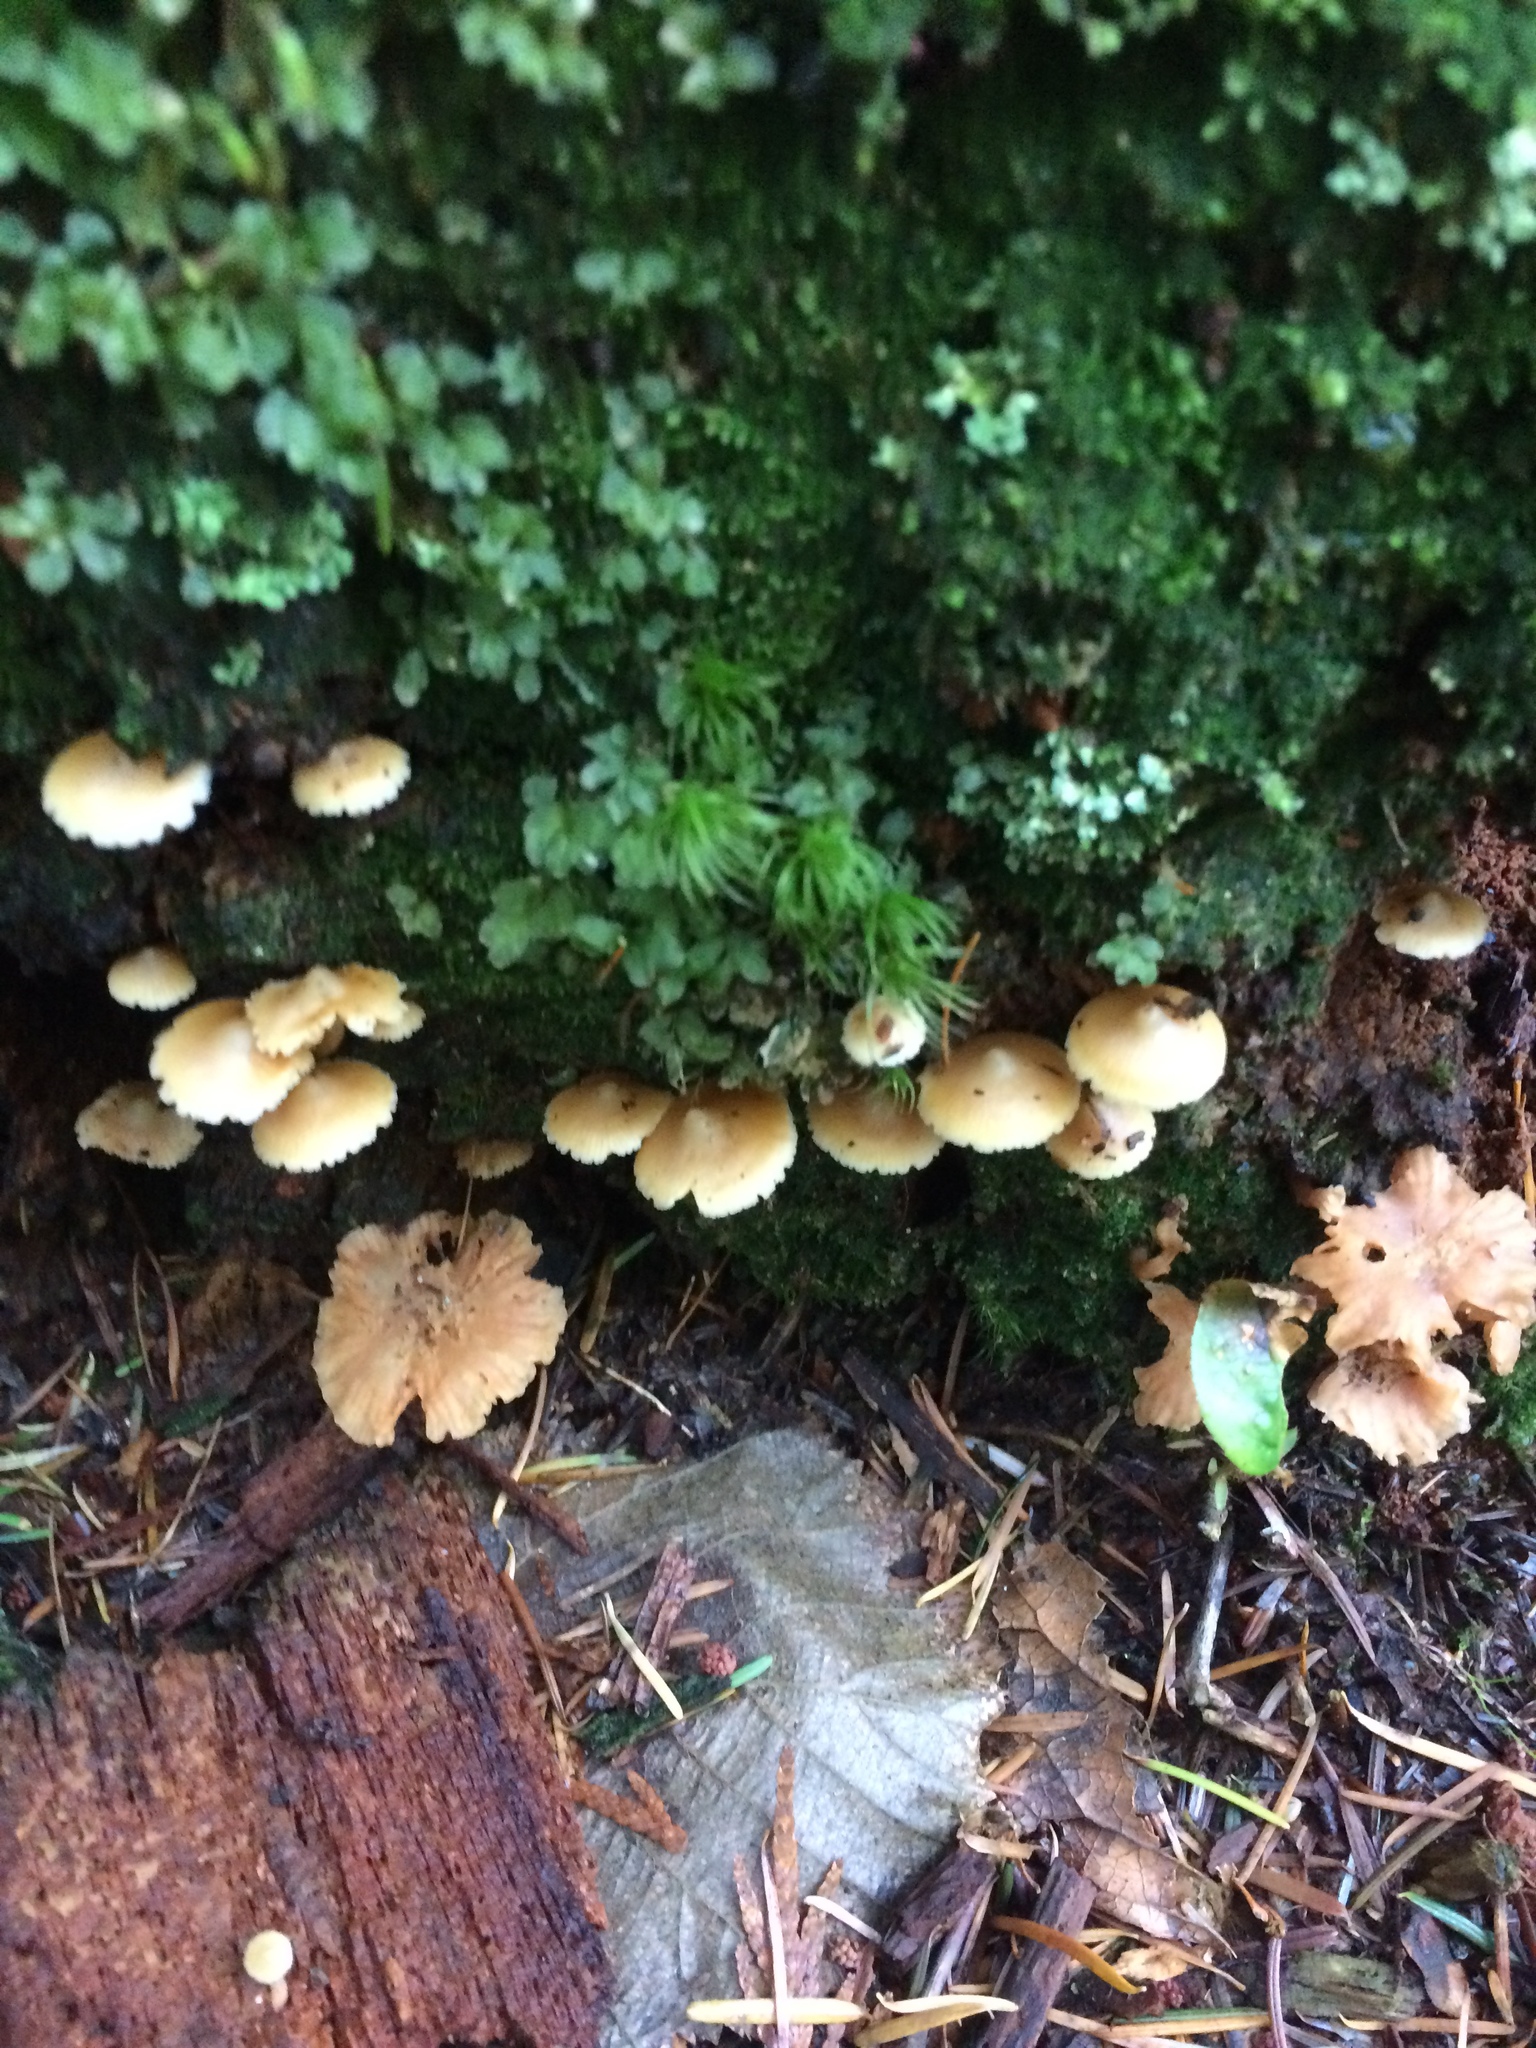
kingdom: Fungi
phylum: Basidiomycota
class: Agaricomycetes
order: Cantharellales
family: Hydnaceae
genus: Craterellus
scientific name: Craterellus tubaeformis
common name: Yellowfoot
